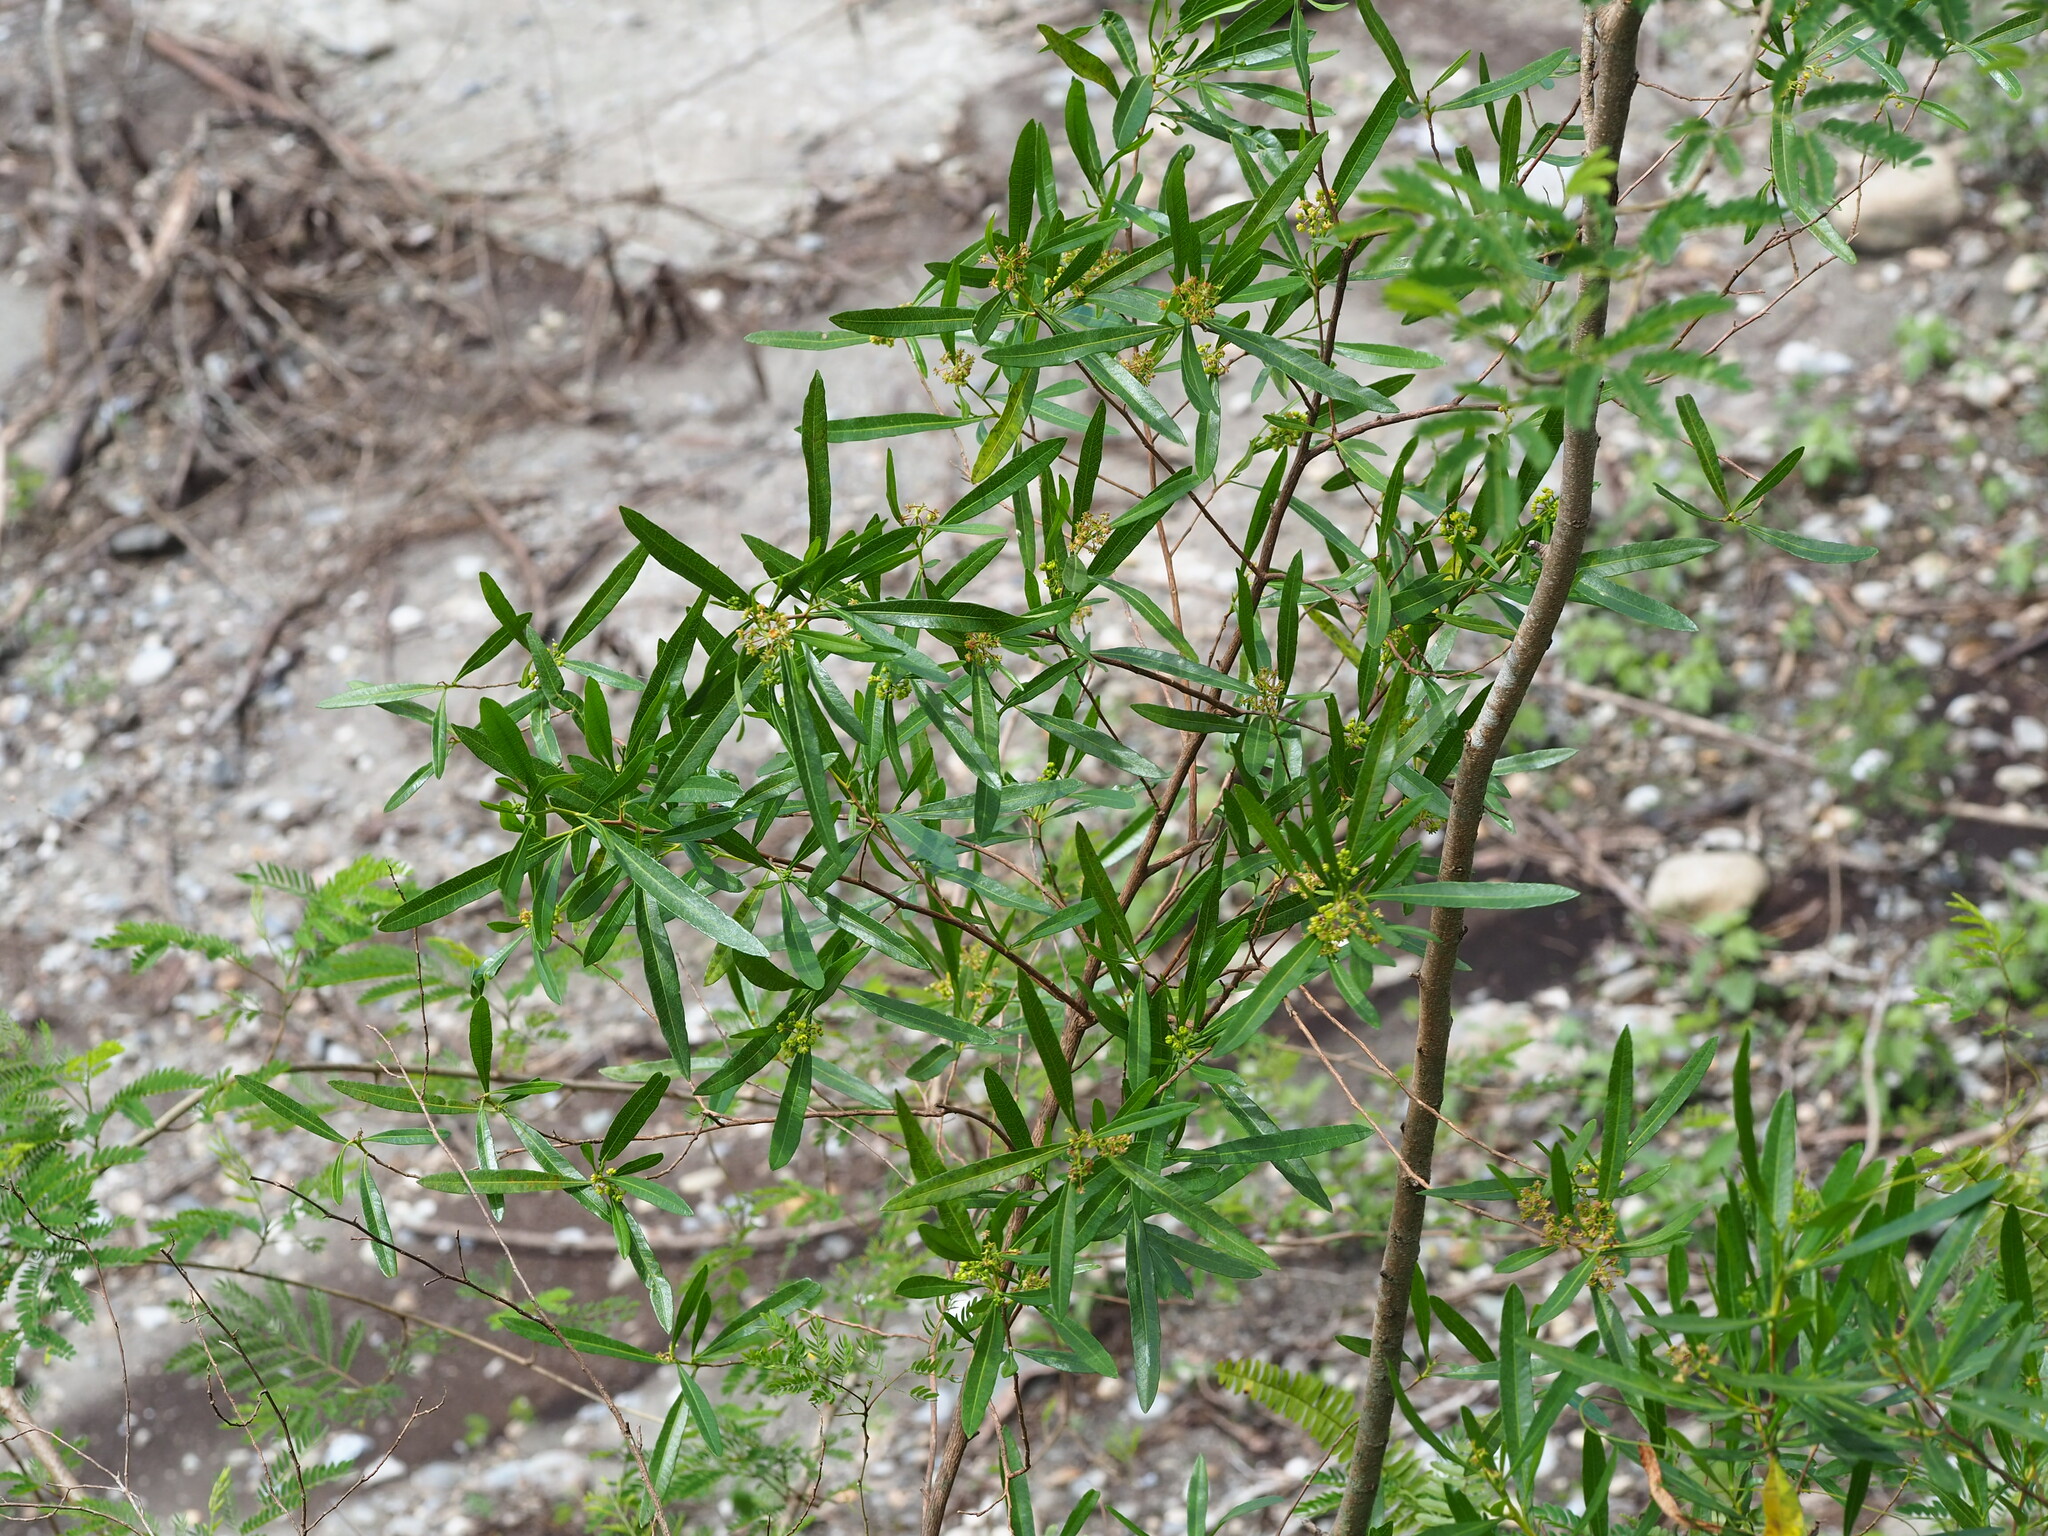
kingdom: Plantae
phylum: Tracheophyta
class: Magnoliopsida
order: Sapindales
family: Sapindaceae
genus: Dodonaea
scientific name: Dodonaea viscosa
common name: Hopbush
